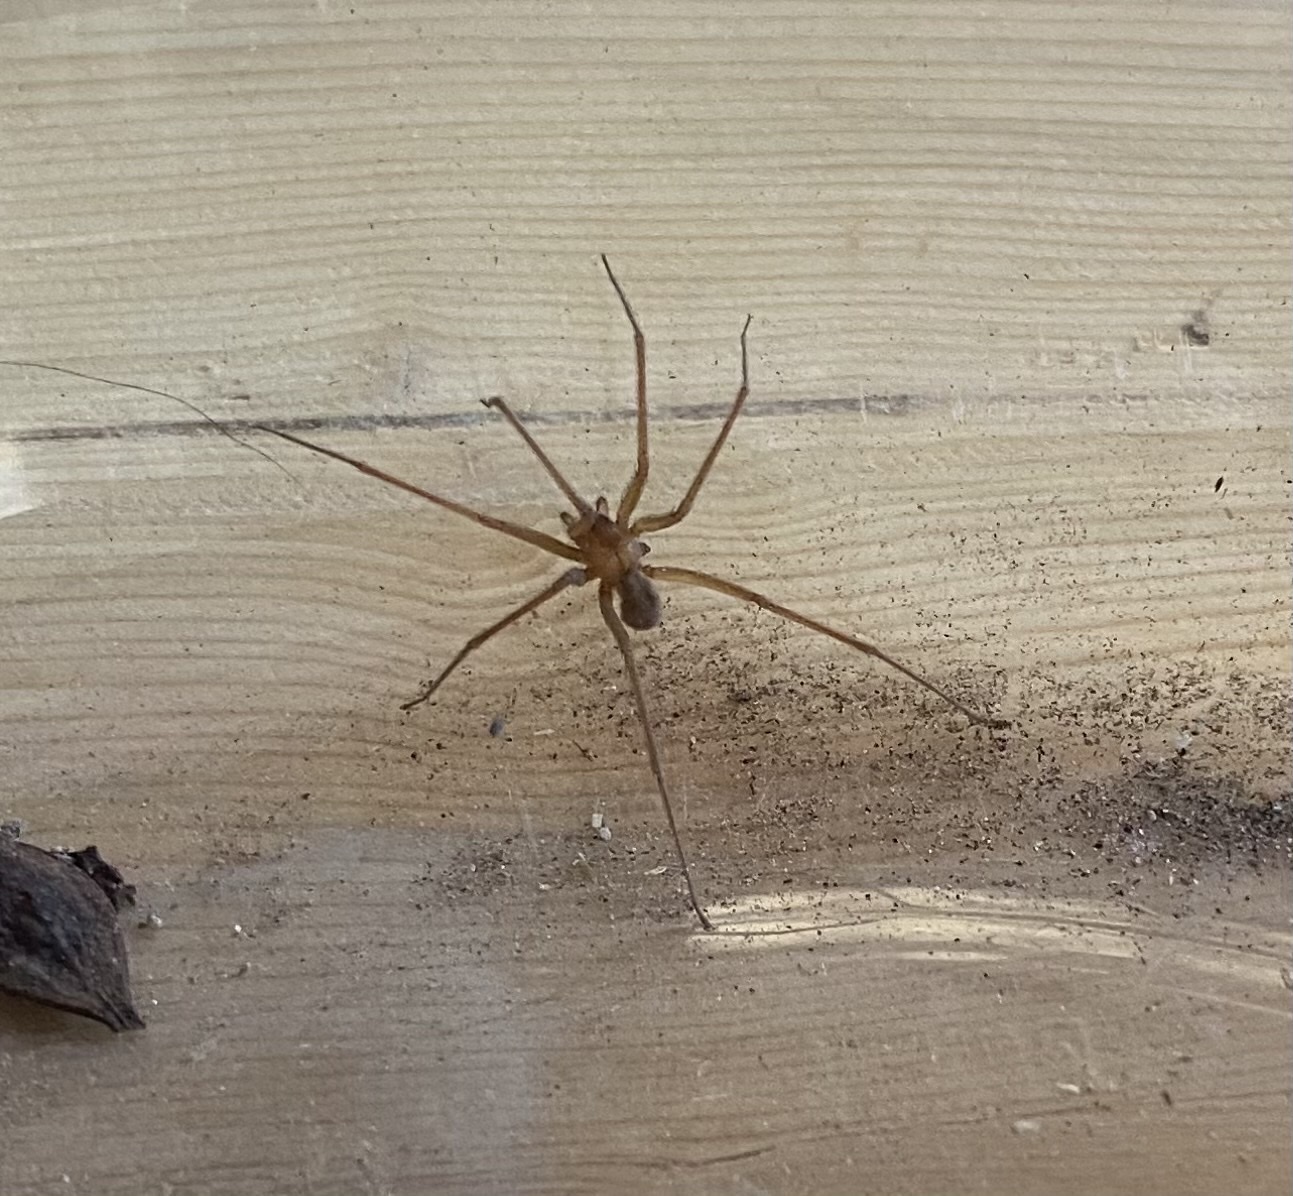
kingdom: Animalia
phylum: Arthropoda
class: Arachnida
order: Araneae
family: Sicariidae
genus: Loxosceles
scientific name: Loxosceles arizonica
